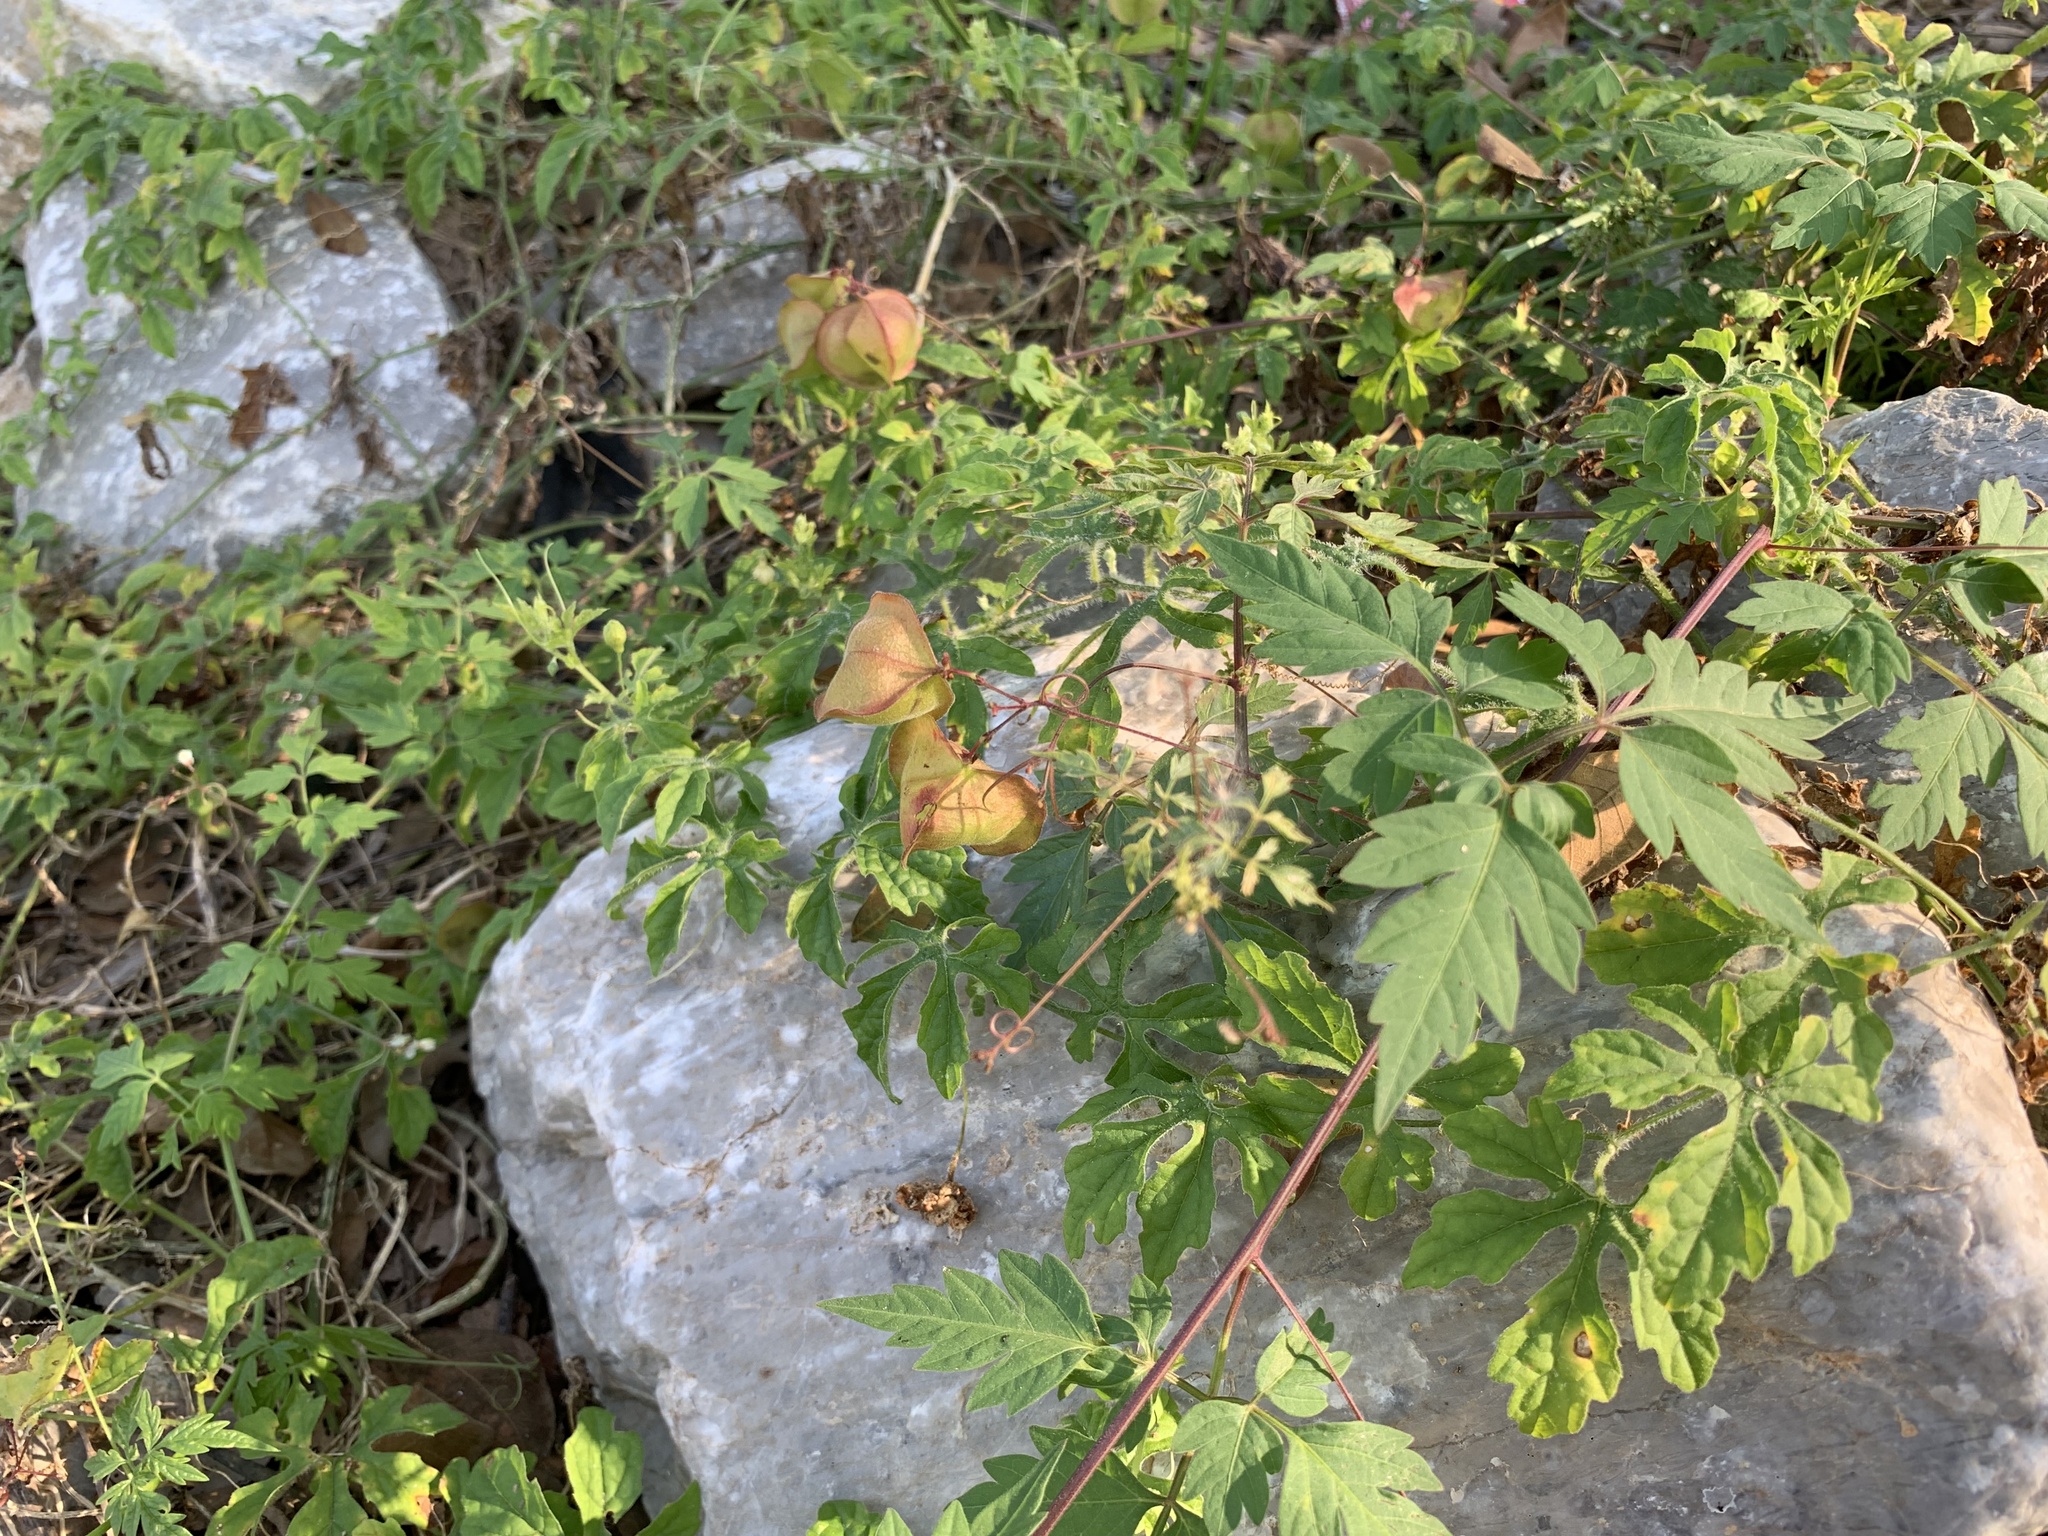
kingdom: Plantae
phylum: Tracheophyta
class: Magnoliopsida
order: Sapindales
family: Sapindaceae
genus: Cardiospermum
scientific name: Cardiospermum halicacabum
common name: Balloon vine
